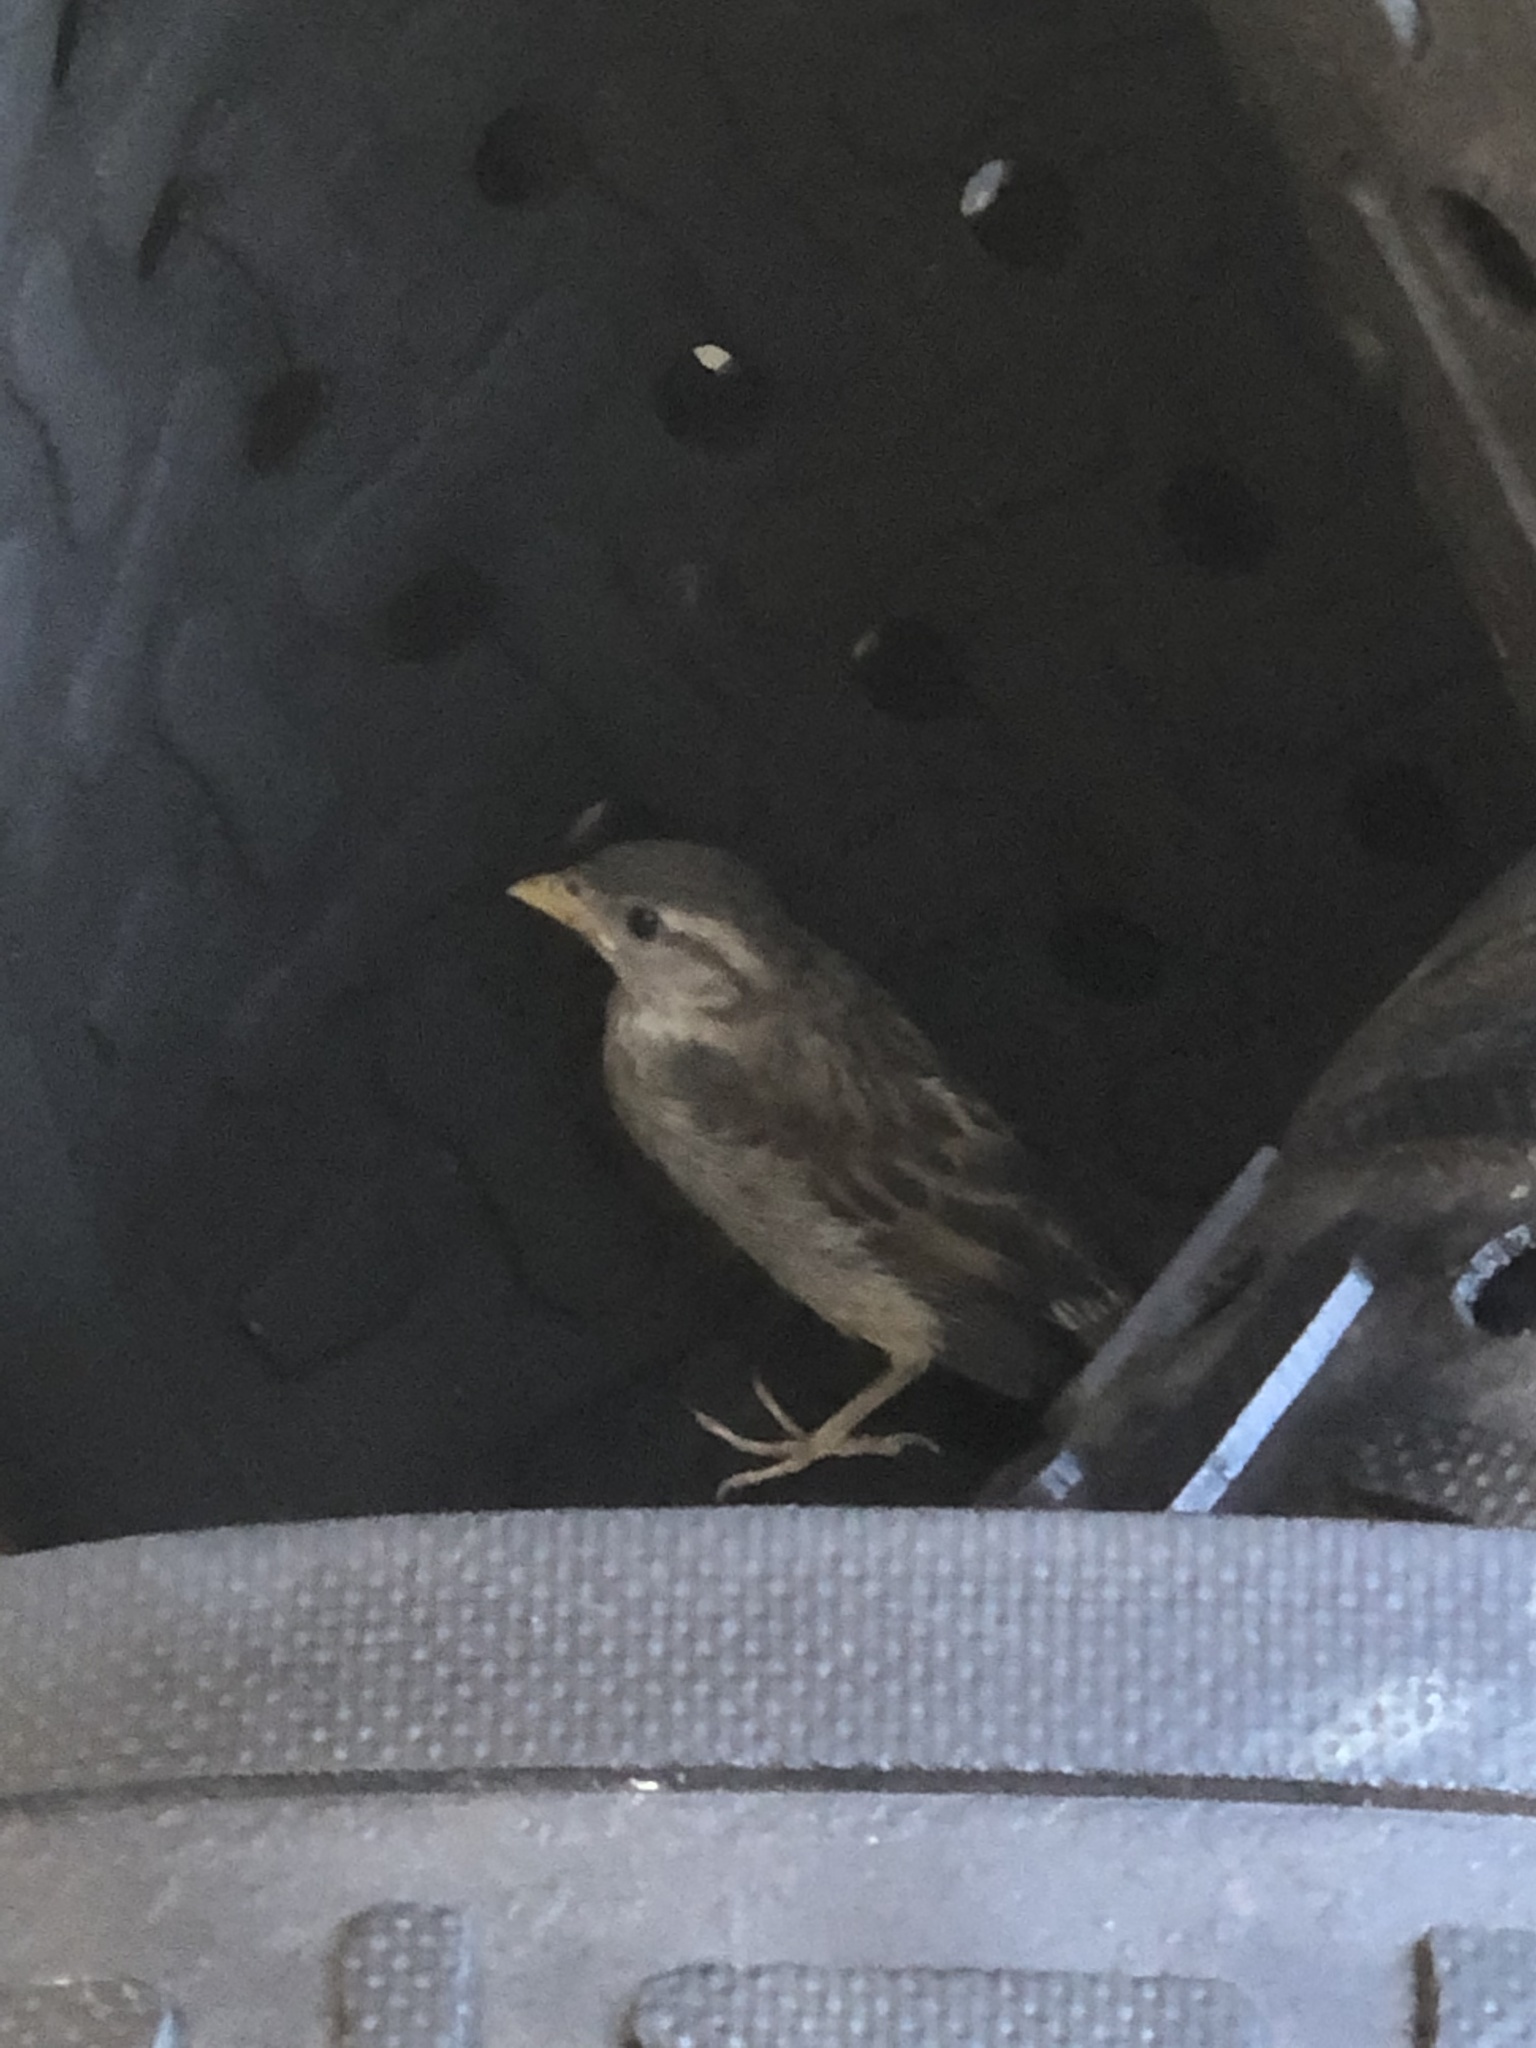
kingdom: Animalia
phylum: Chordata
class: Aves
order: Passeriformes
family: Passeridae
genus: Passer
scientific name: Passer domesticus
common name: House sparrow
